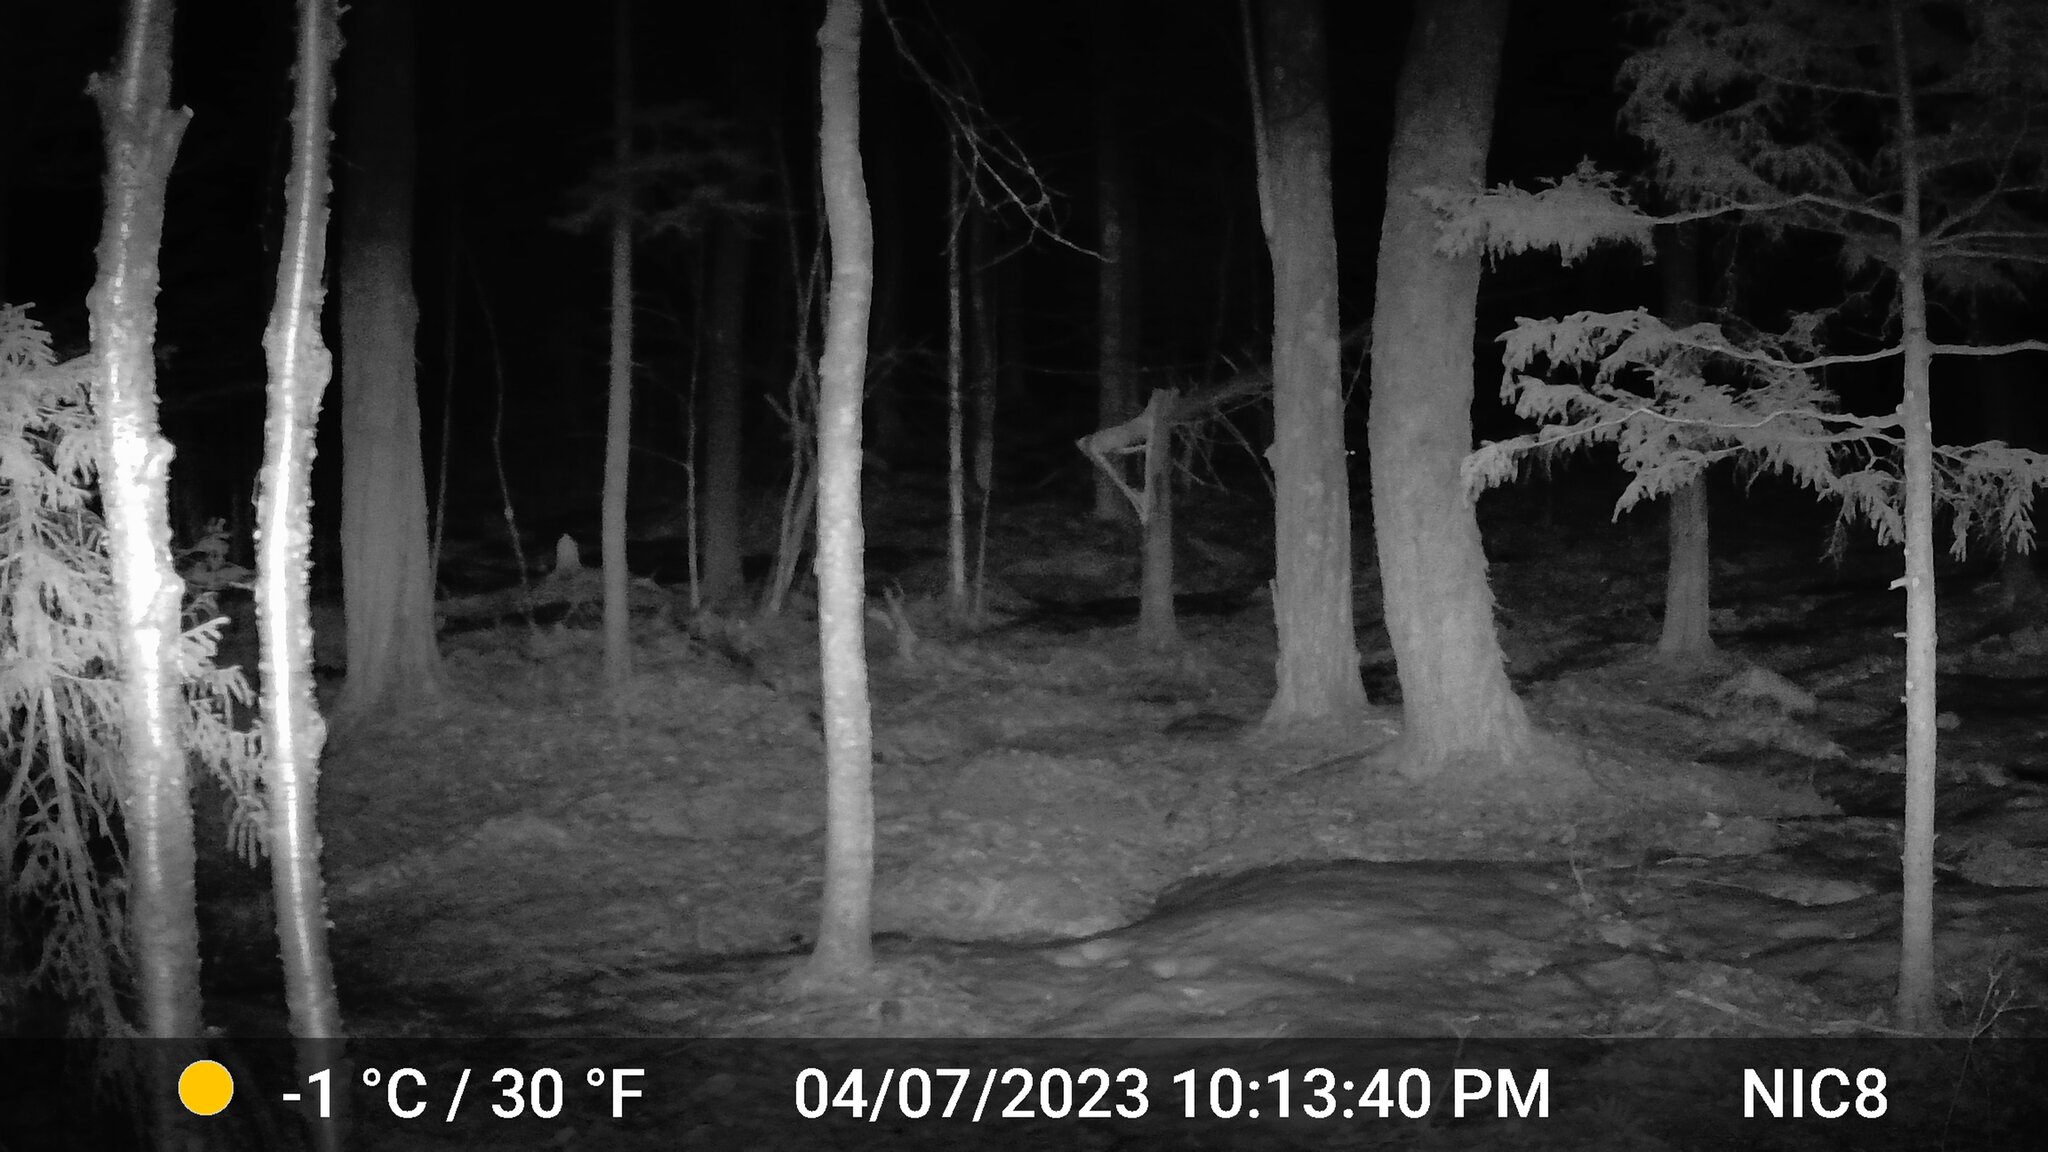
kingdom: Animalia
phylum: Chordata
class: Mammalia
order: Carnivora
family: Canidae
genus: Vulpes
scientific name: Vulpes vulpes
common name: Red fox
